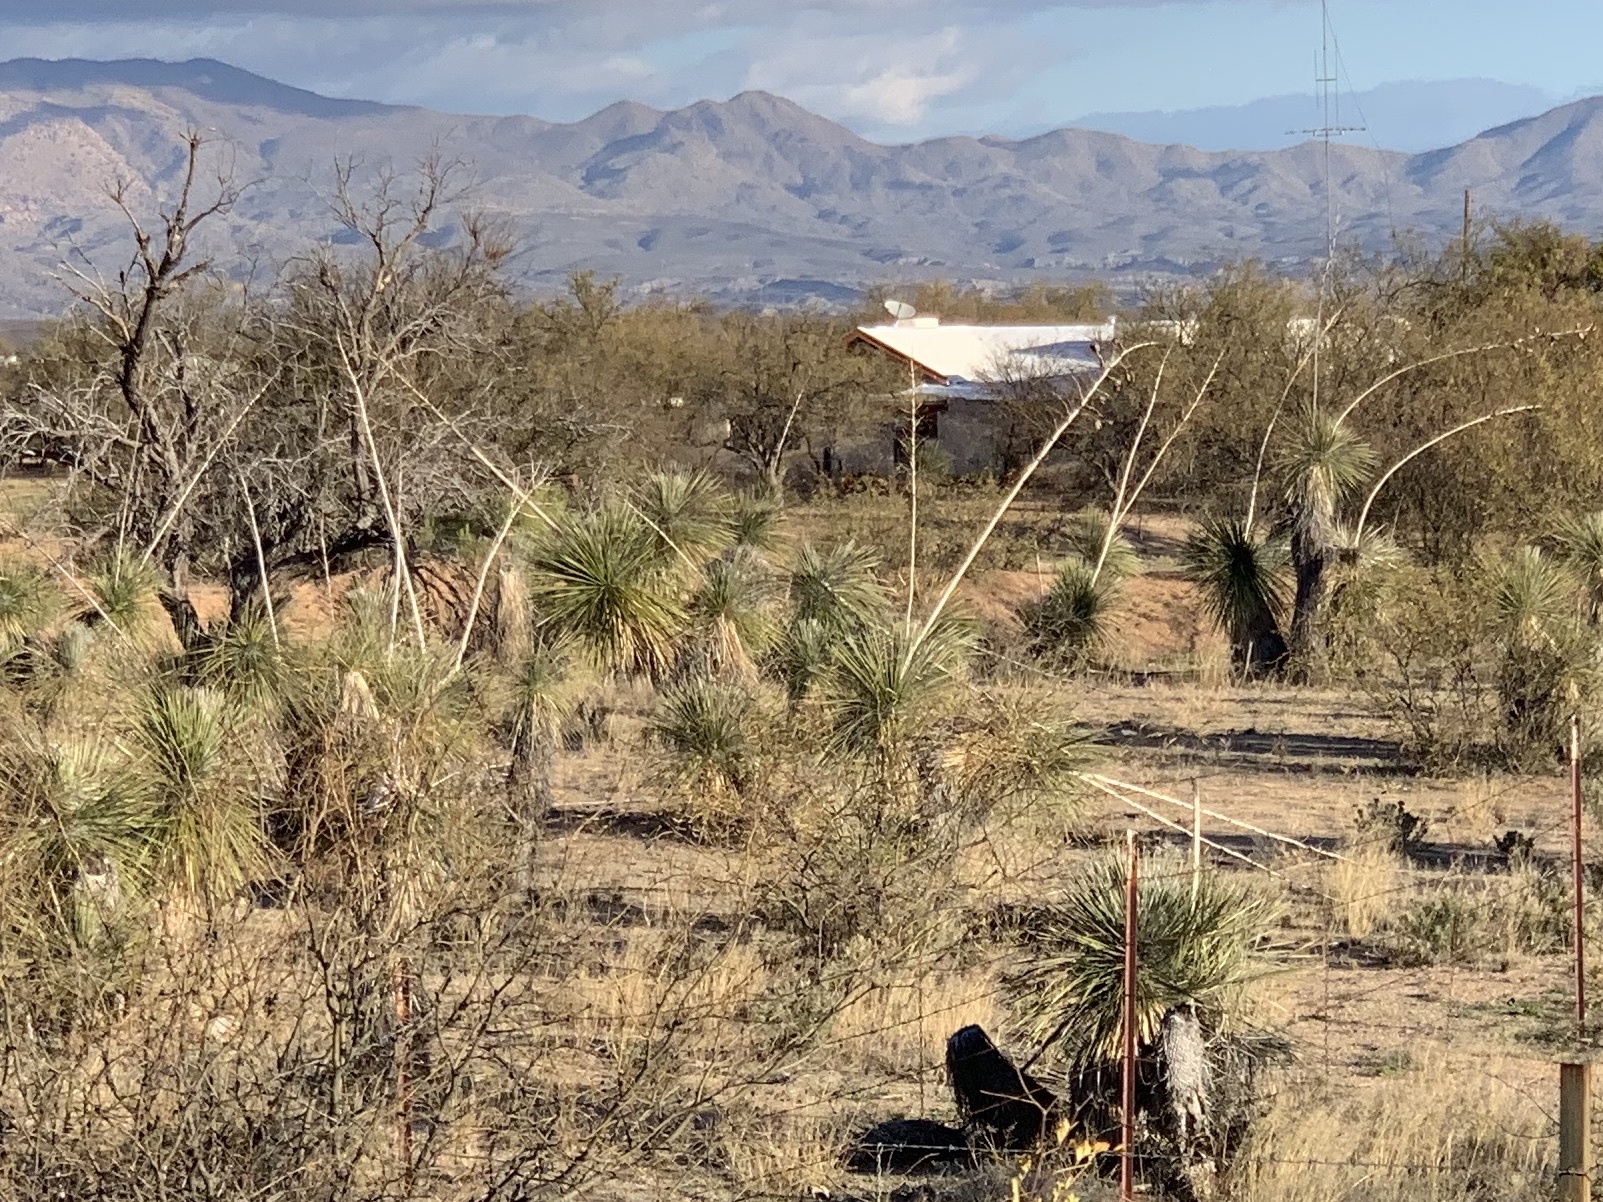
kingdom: Plantae
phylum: Tracheophyta
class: Liliopsida
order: Asparagales
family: Asparagaceae
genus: Yucca
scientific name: Yucca elata
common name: Palmella
